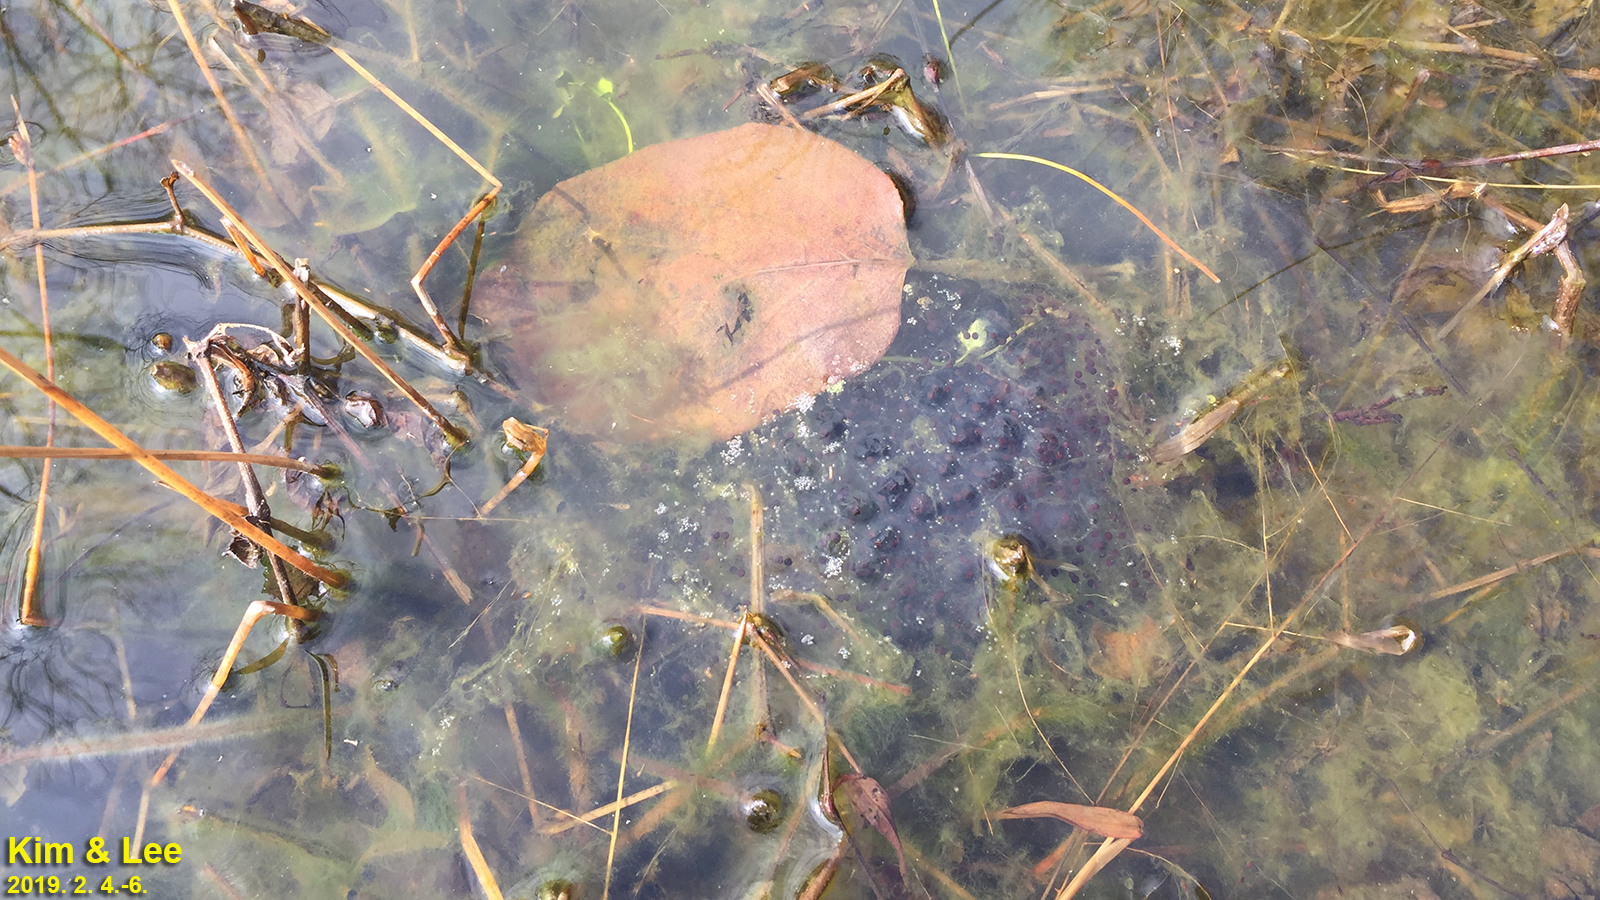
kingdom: Animalia
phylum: Chordata
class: Amphibia
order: Anura
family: Ranidae
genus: Rana
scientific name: Rana uenoi
